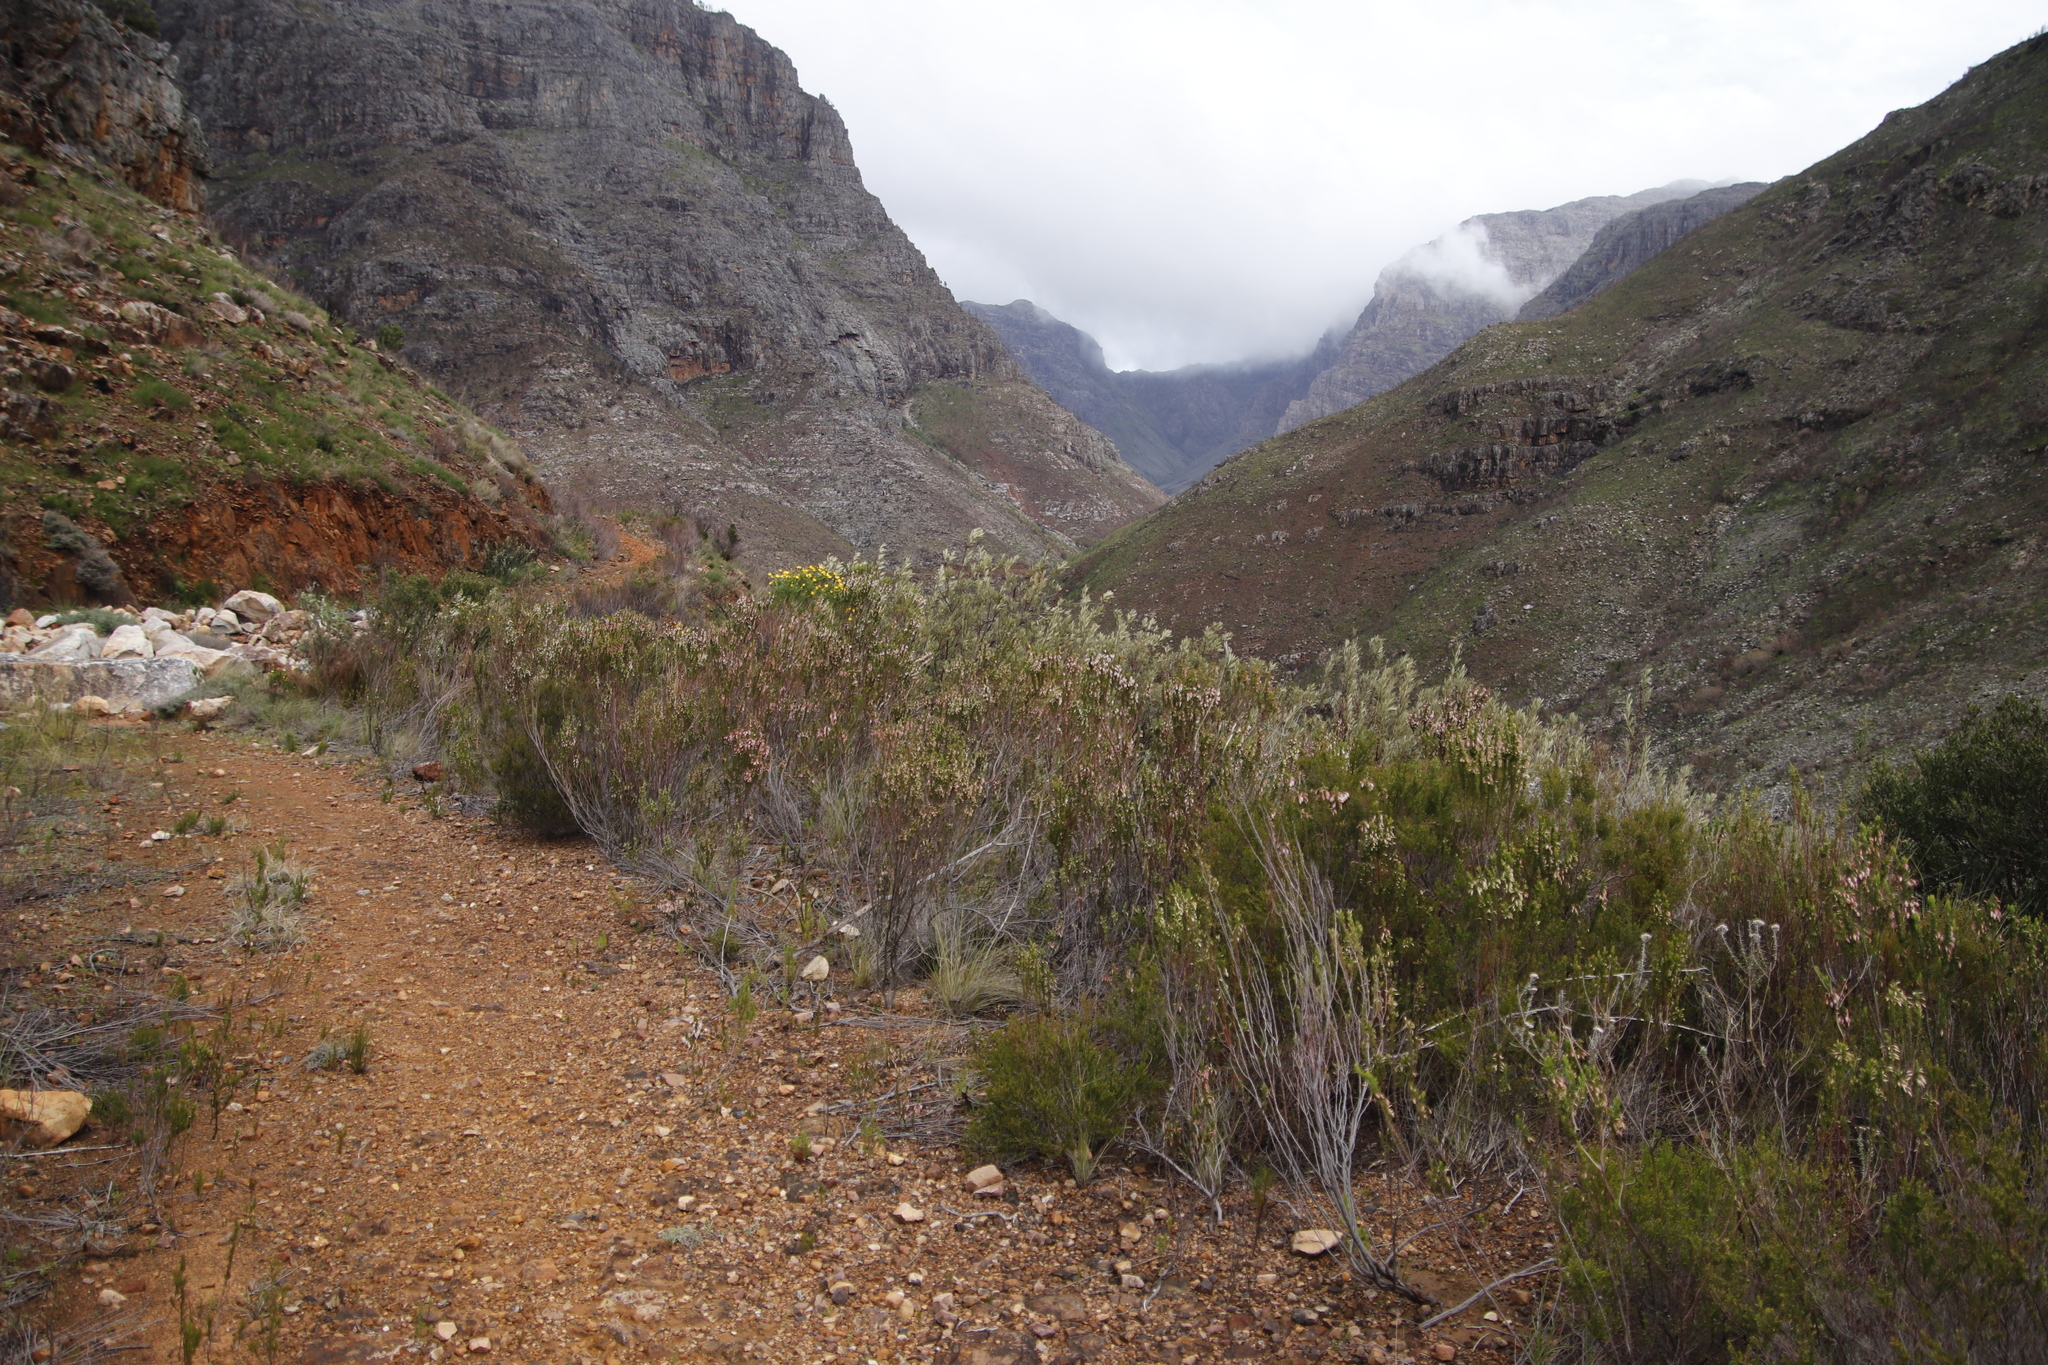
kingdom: Plantae
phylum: Tracheophyta
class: Magnoliopsida
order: Sapindales
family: Anacardiaceae
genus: Searsia
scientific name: Searsia angustifolia
